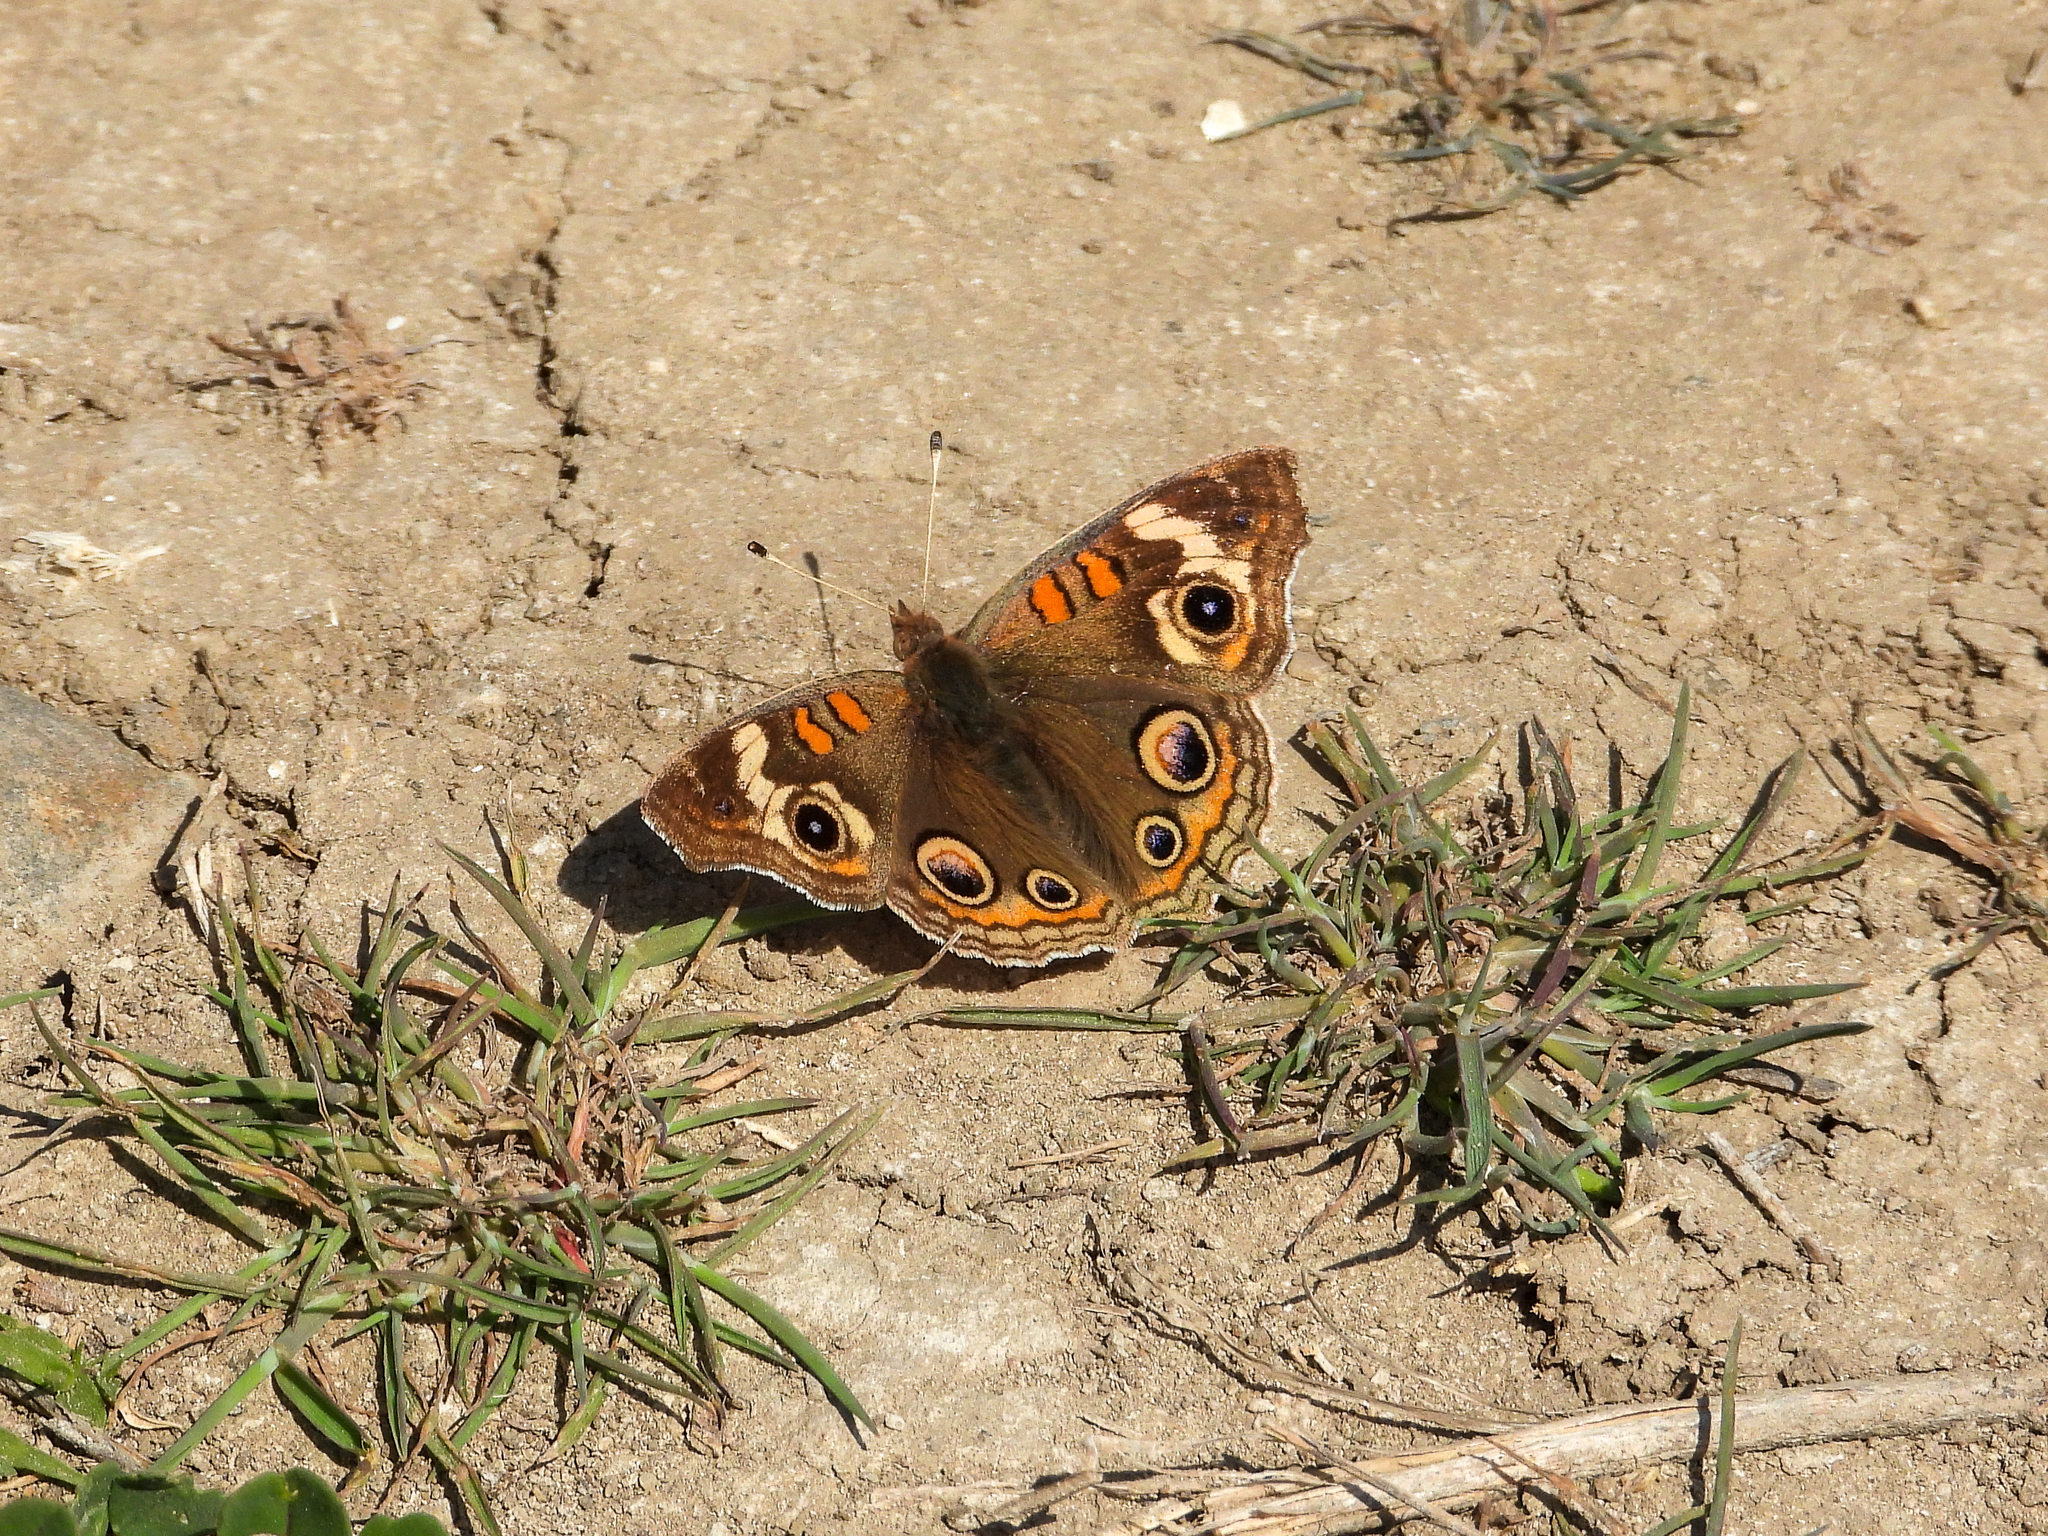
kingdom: Animalia
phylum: Arthropoda
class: Insecta
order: Lepidoptera
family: Nymphalidae
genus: Junonia
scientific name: Junonia grisea
